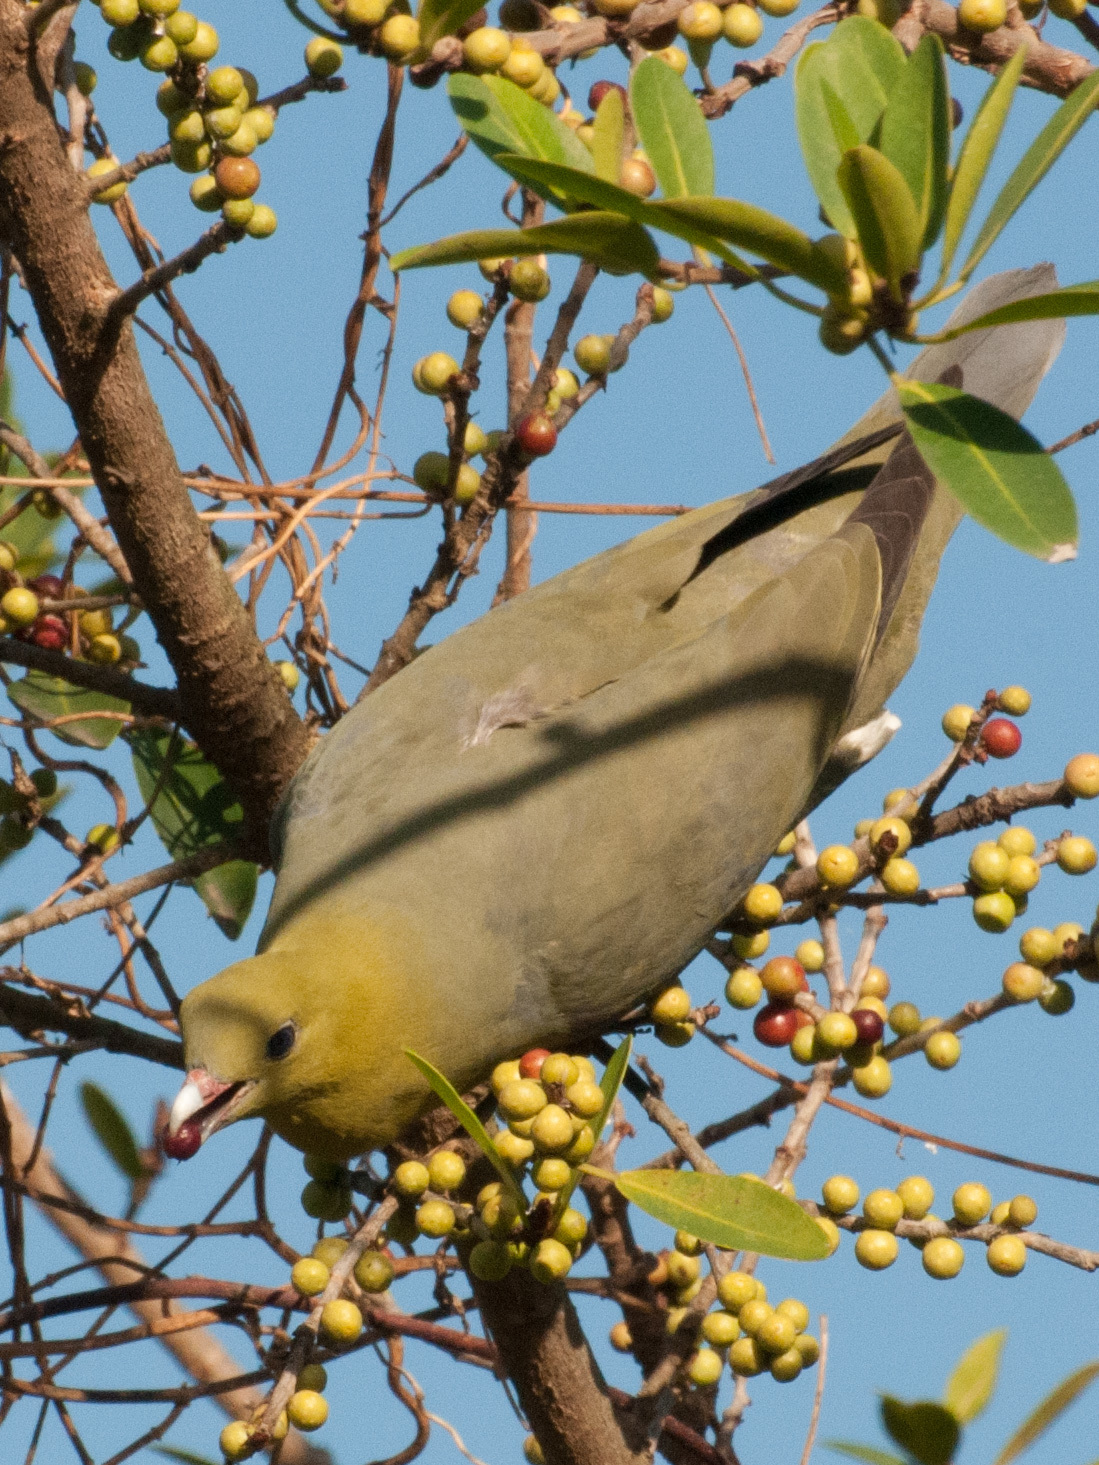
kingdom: Animalia
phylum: Chordata
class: Aves
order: Columbiformes
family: Columbidae
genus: Treron
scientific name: Treron australis
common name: Madagascar green pigeon
